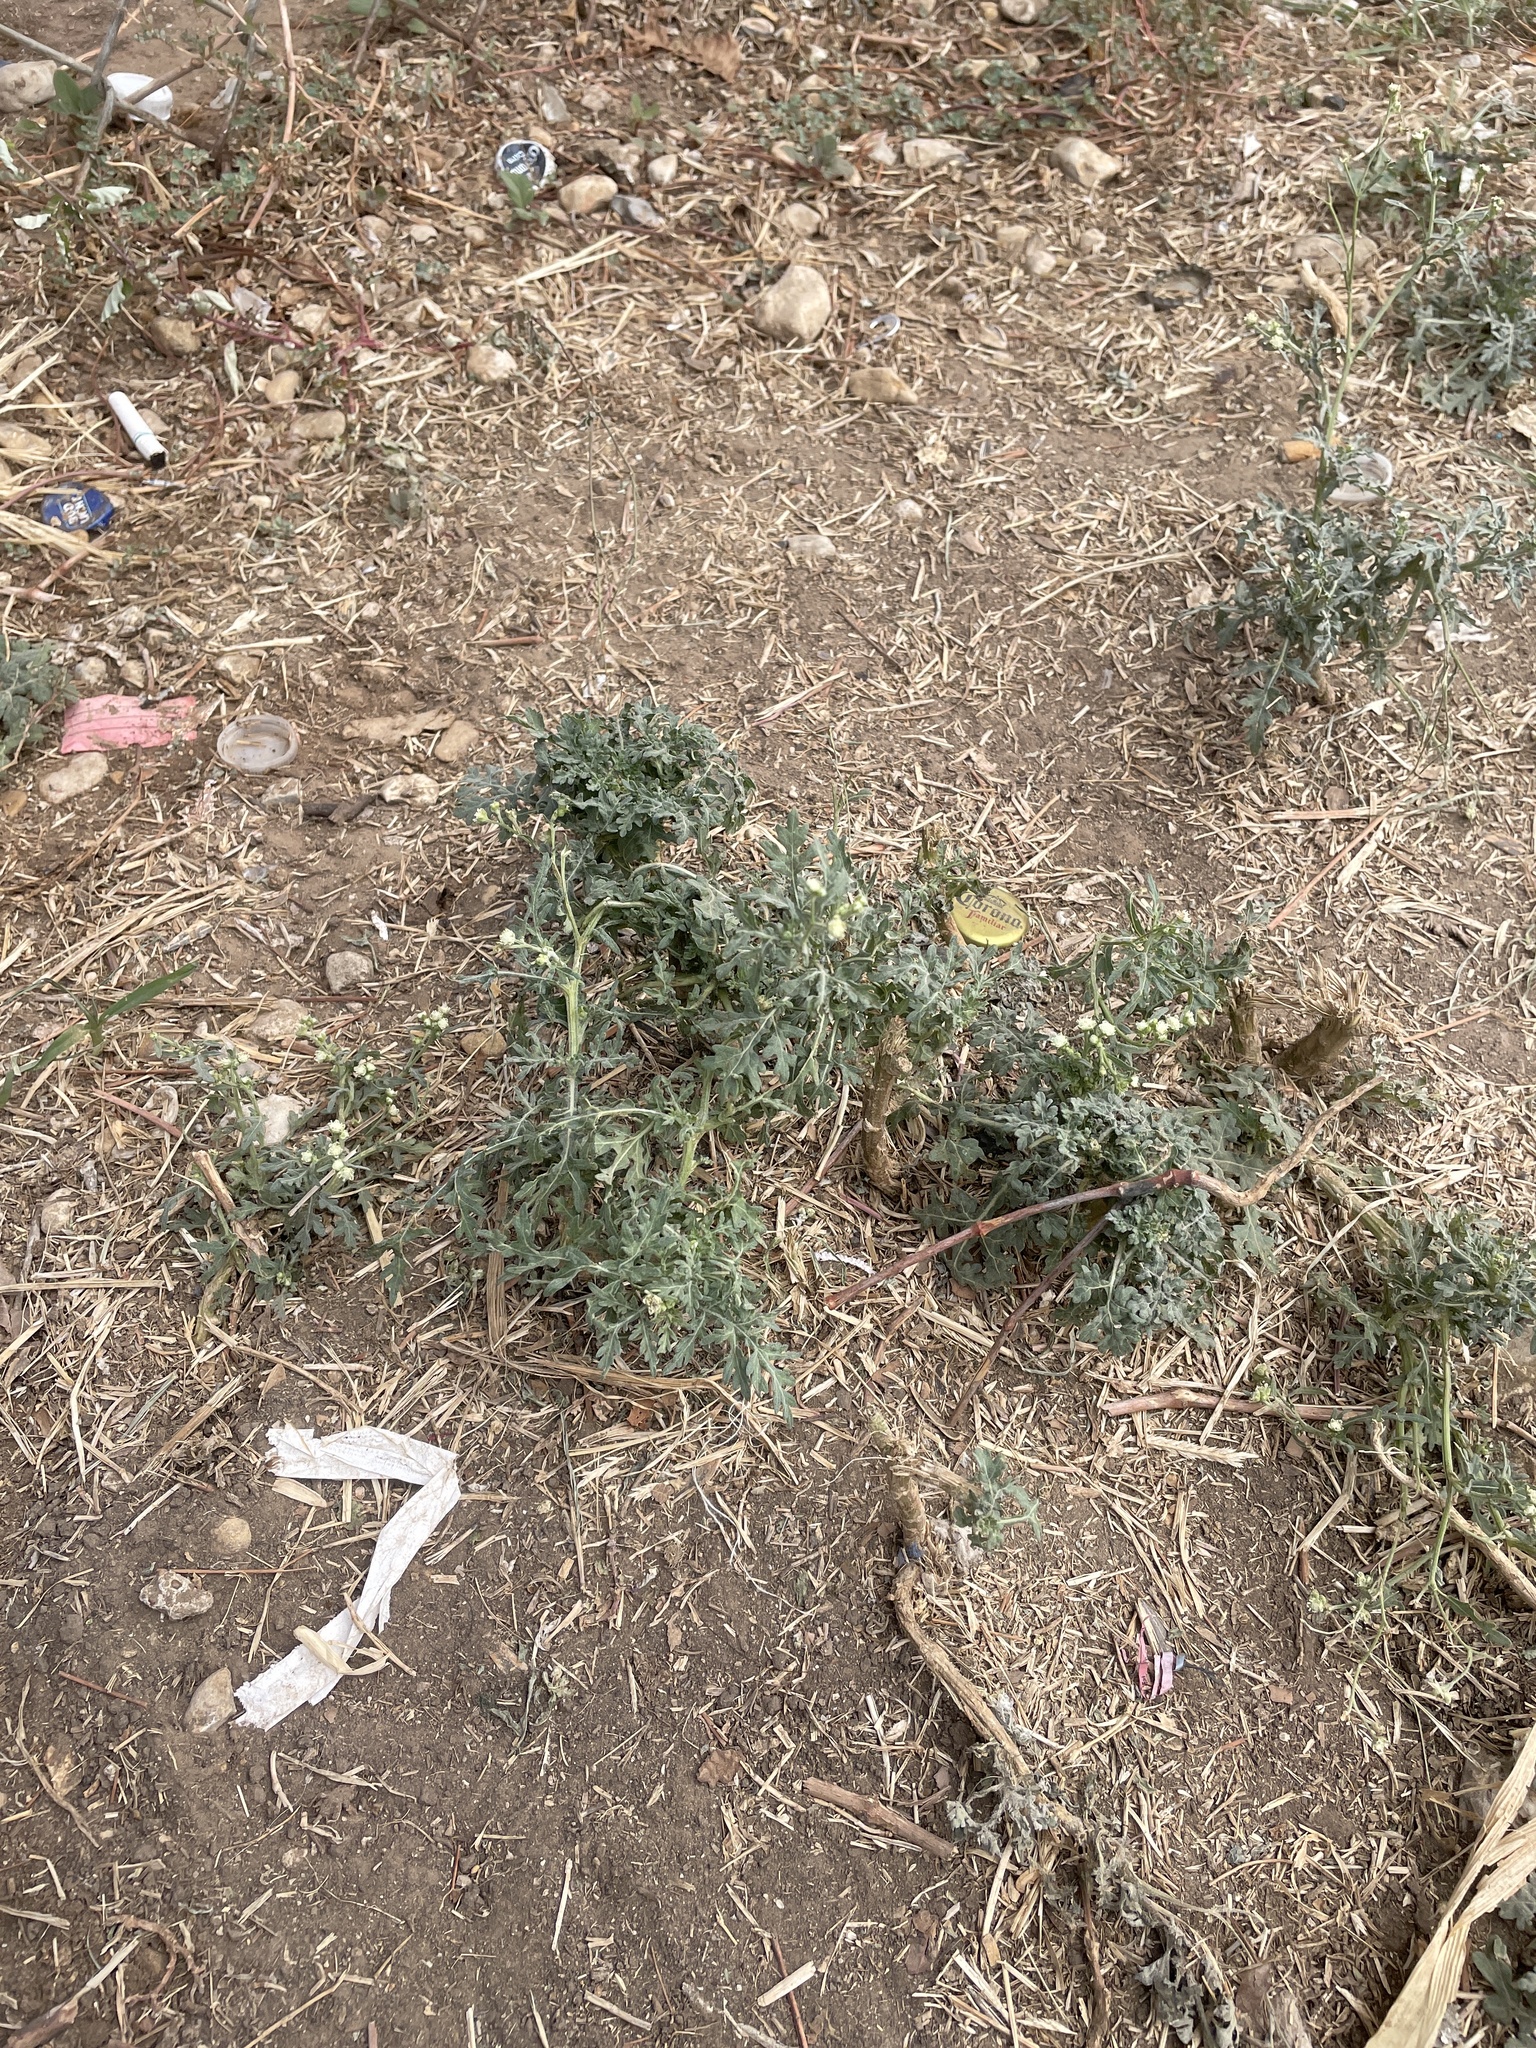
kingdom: Plantae
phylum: Tracheophyta
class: Magnoliopsida
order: Asterales
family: Asteraceae
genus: Parthenium
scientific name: Parthenium hysterophorus
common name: Santa maria feverfew
